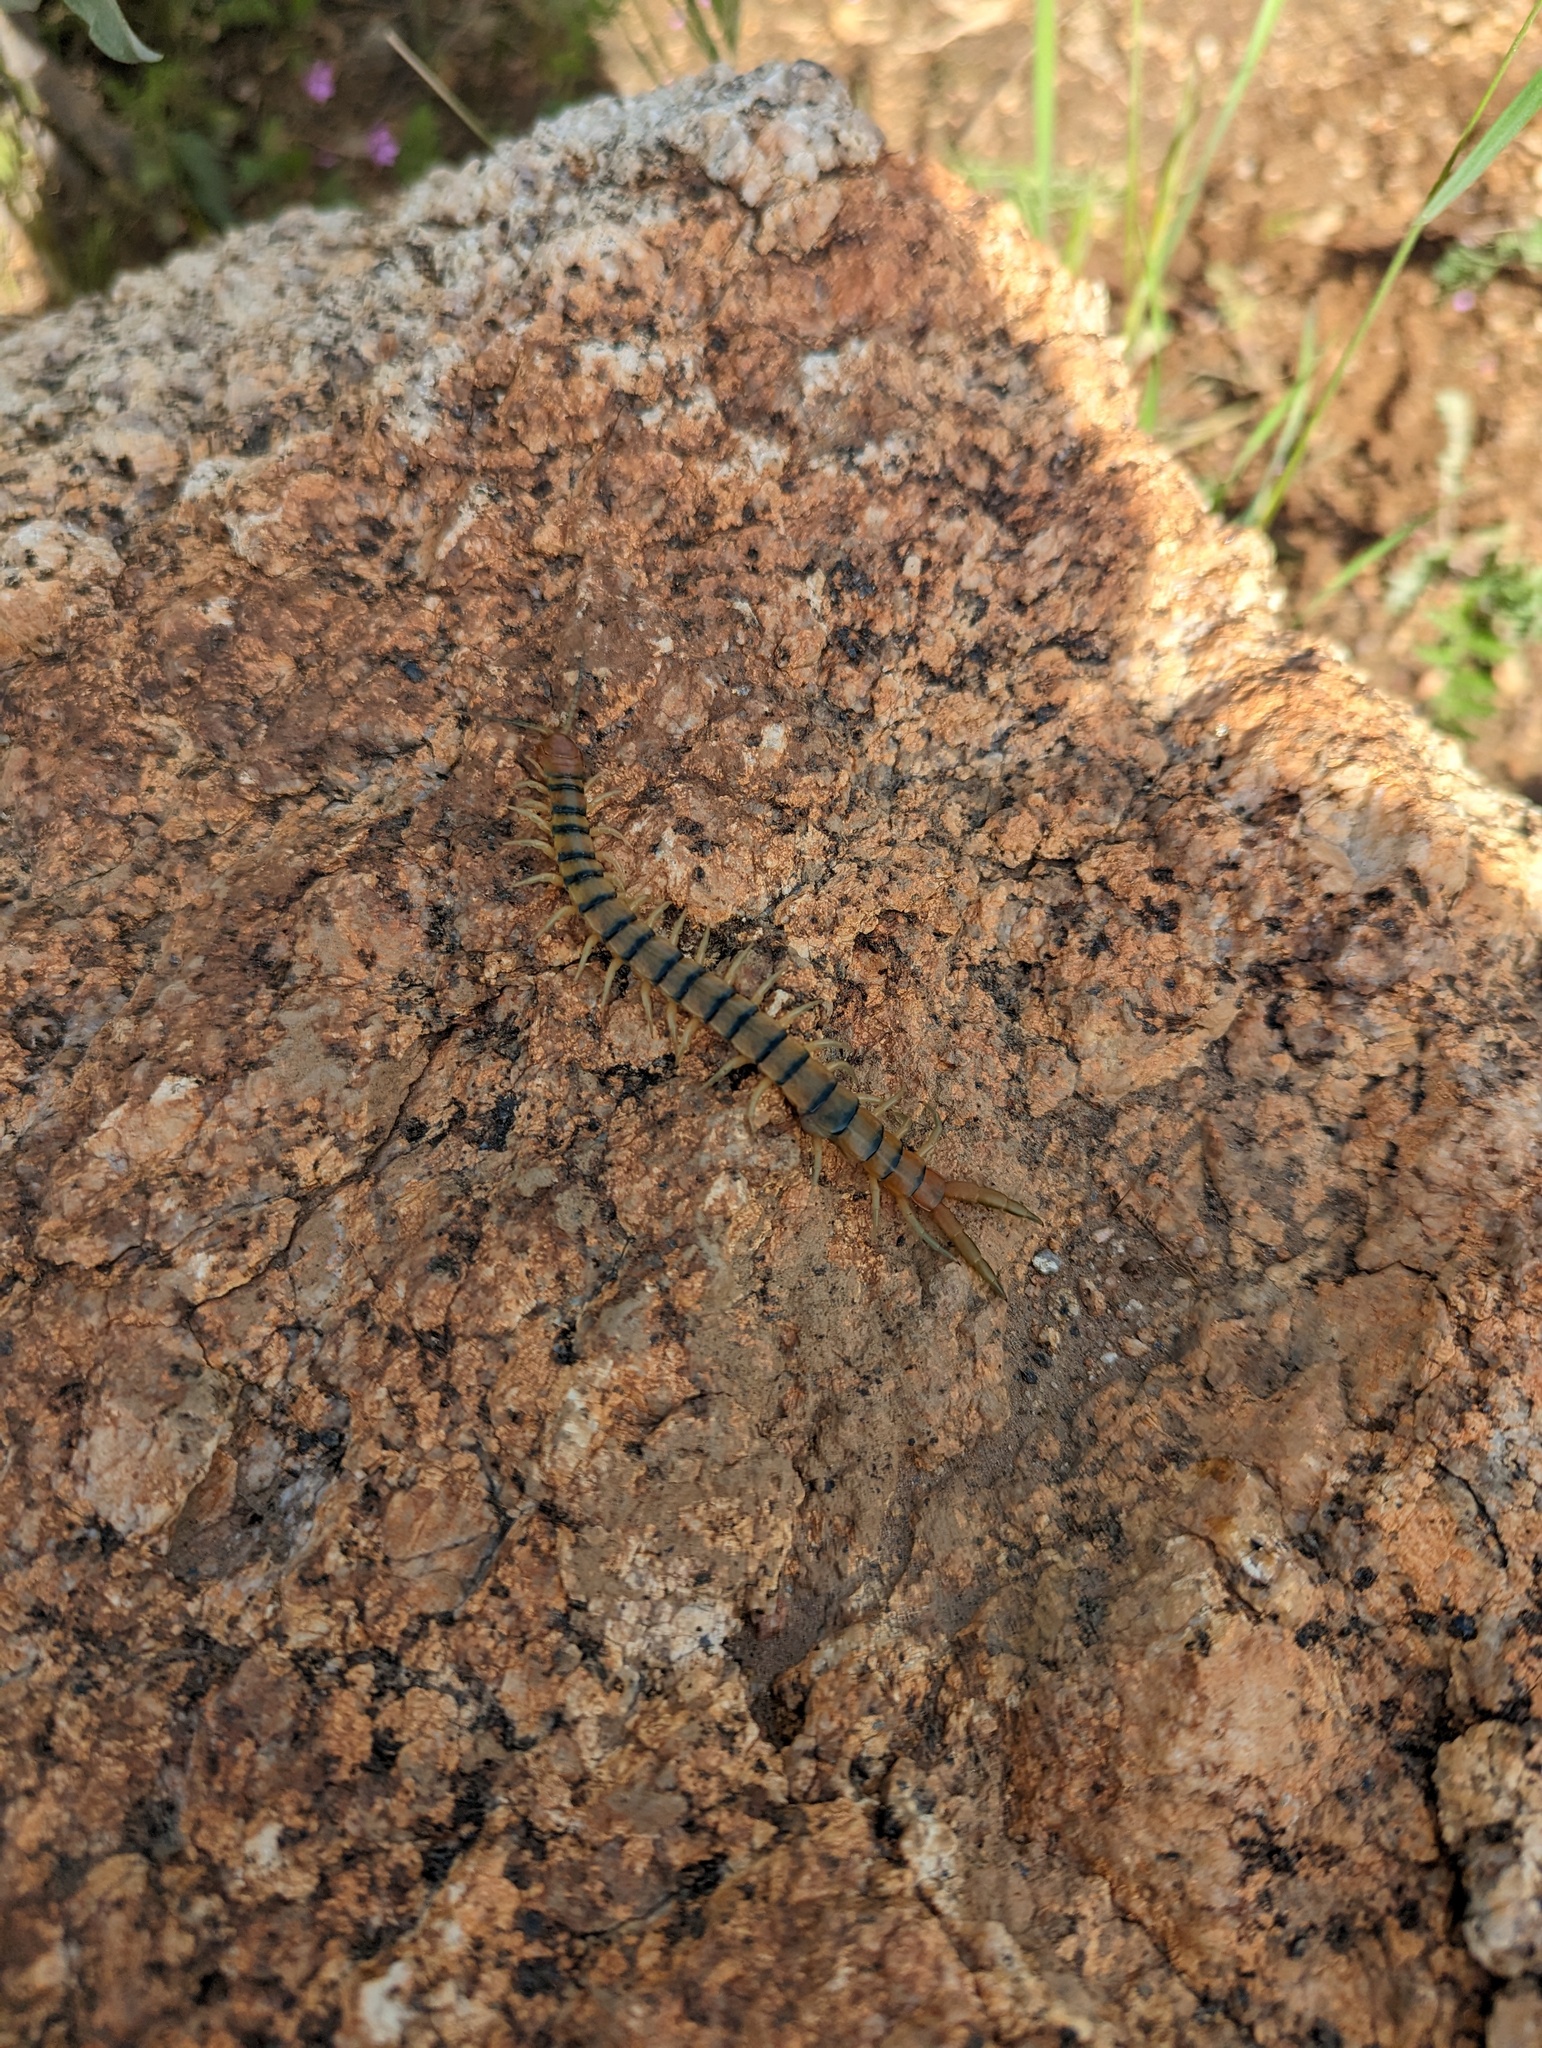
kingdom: Animalia
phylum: Arthropoda
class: Chilopoda
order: Scolopendromorpha
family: Scolopendridae
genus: Scolopendra
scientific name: Scolopendra polymorpha
